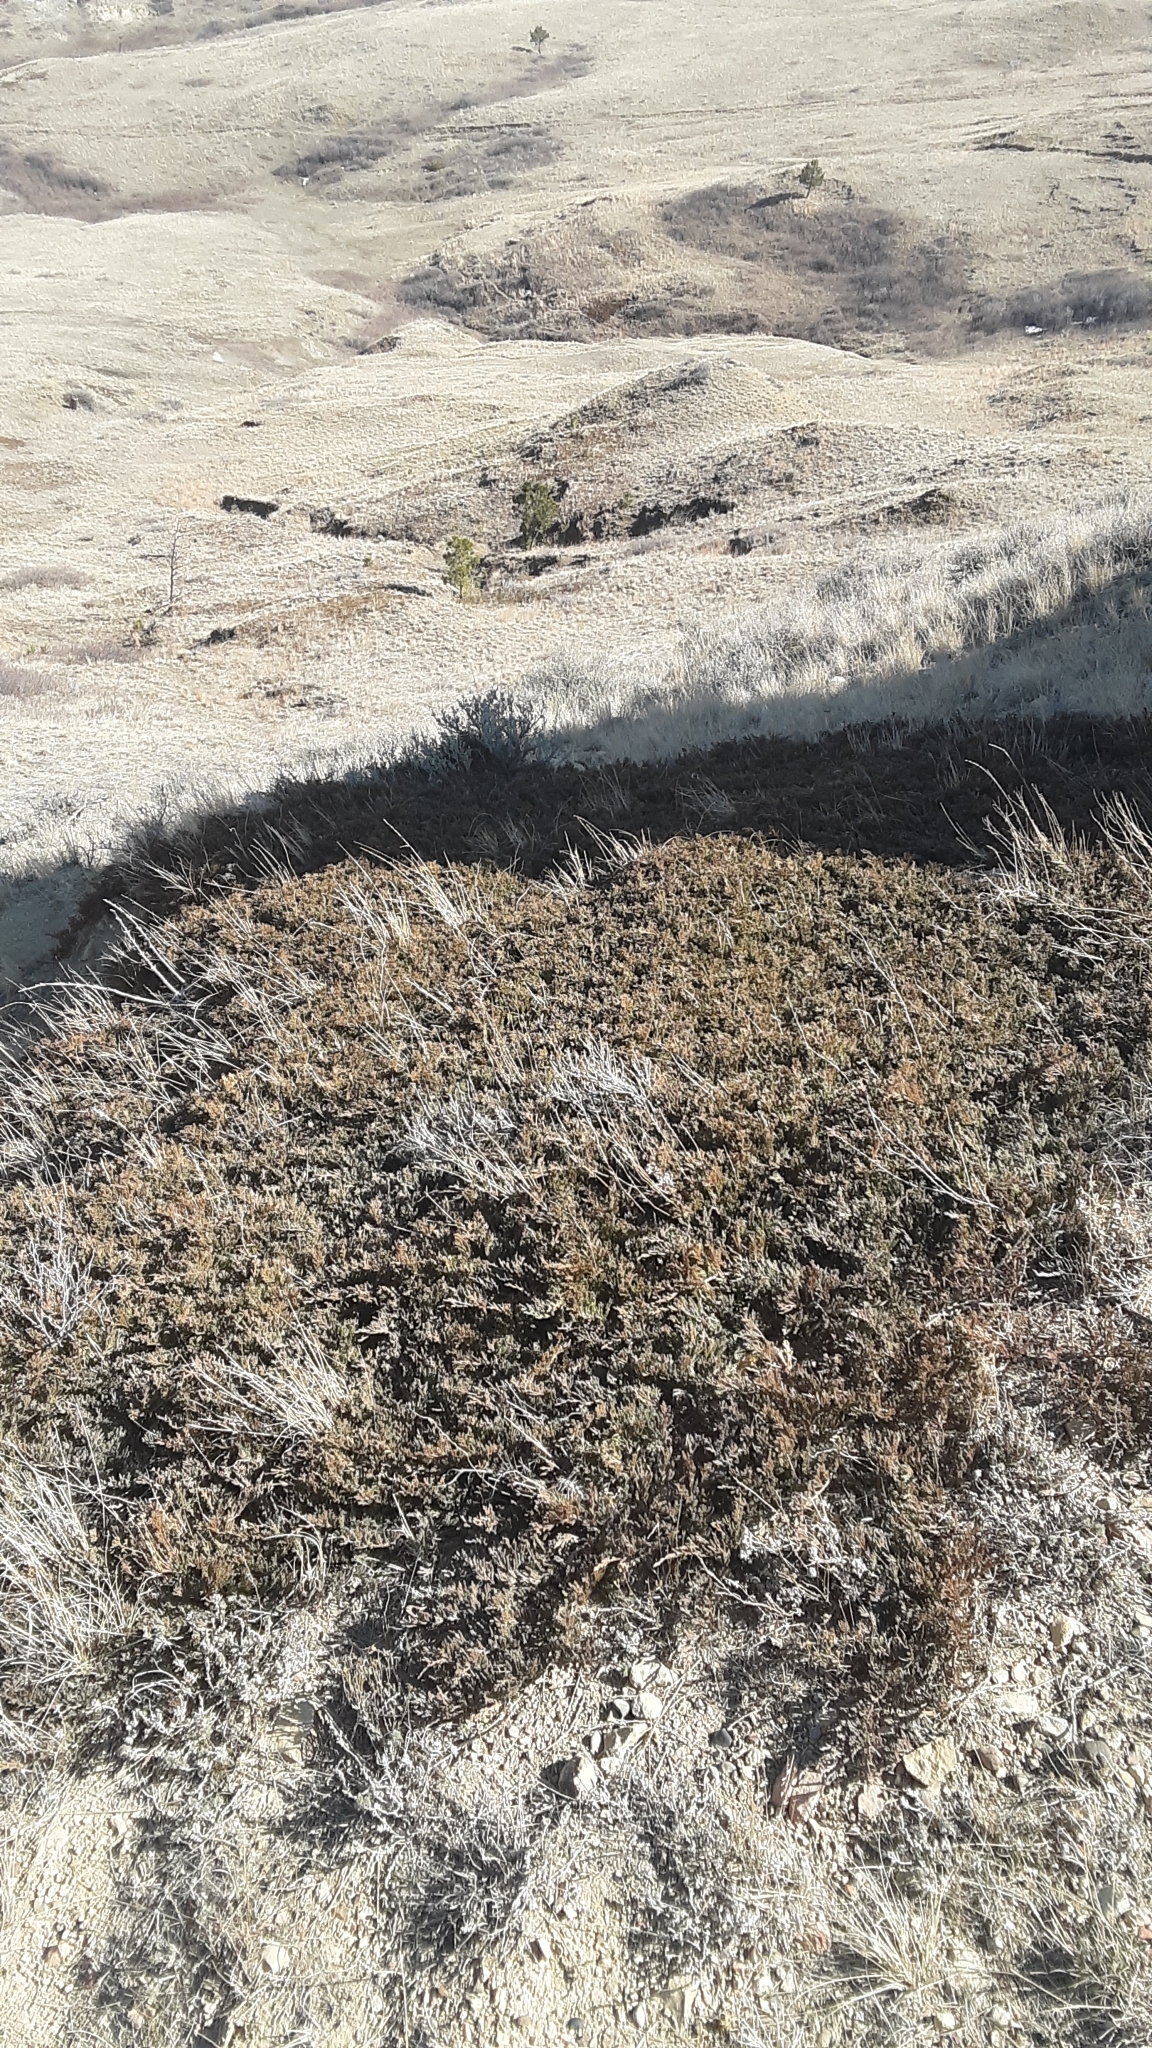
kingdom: Plantae
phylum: Tracheophyta
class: Pinopsida
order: Pinales
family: Cupressaceae
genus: Juniperus
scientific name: Juniperus horizontalis
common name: Creeping juniper
